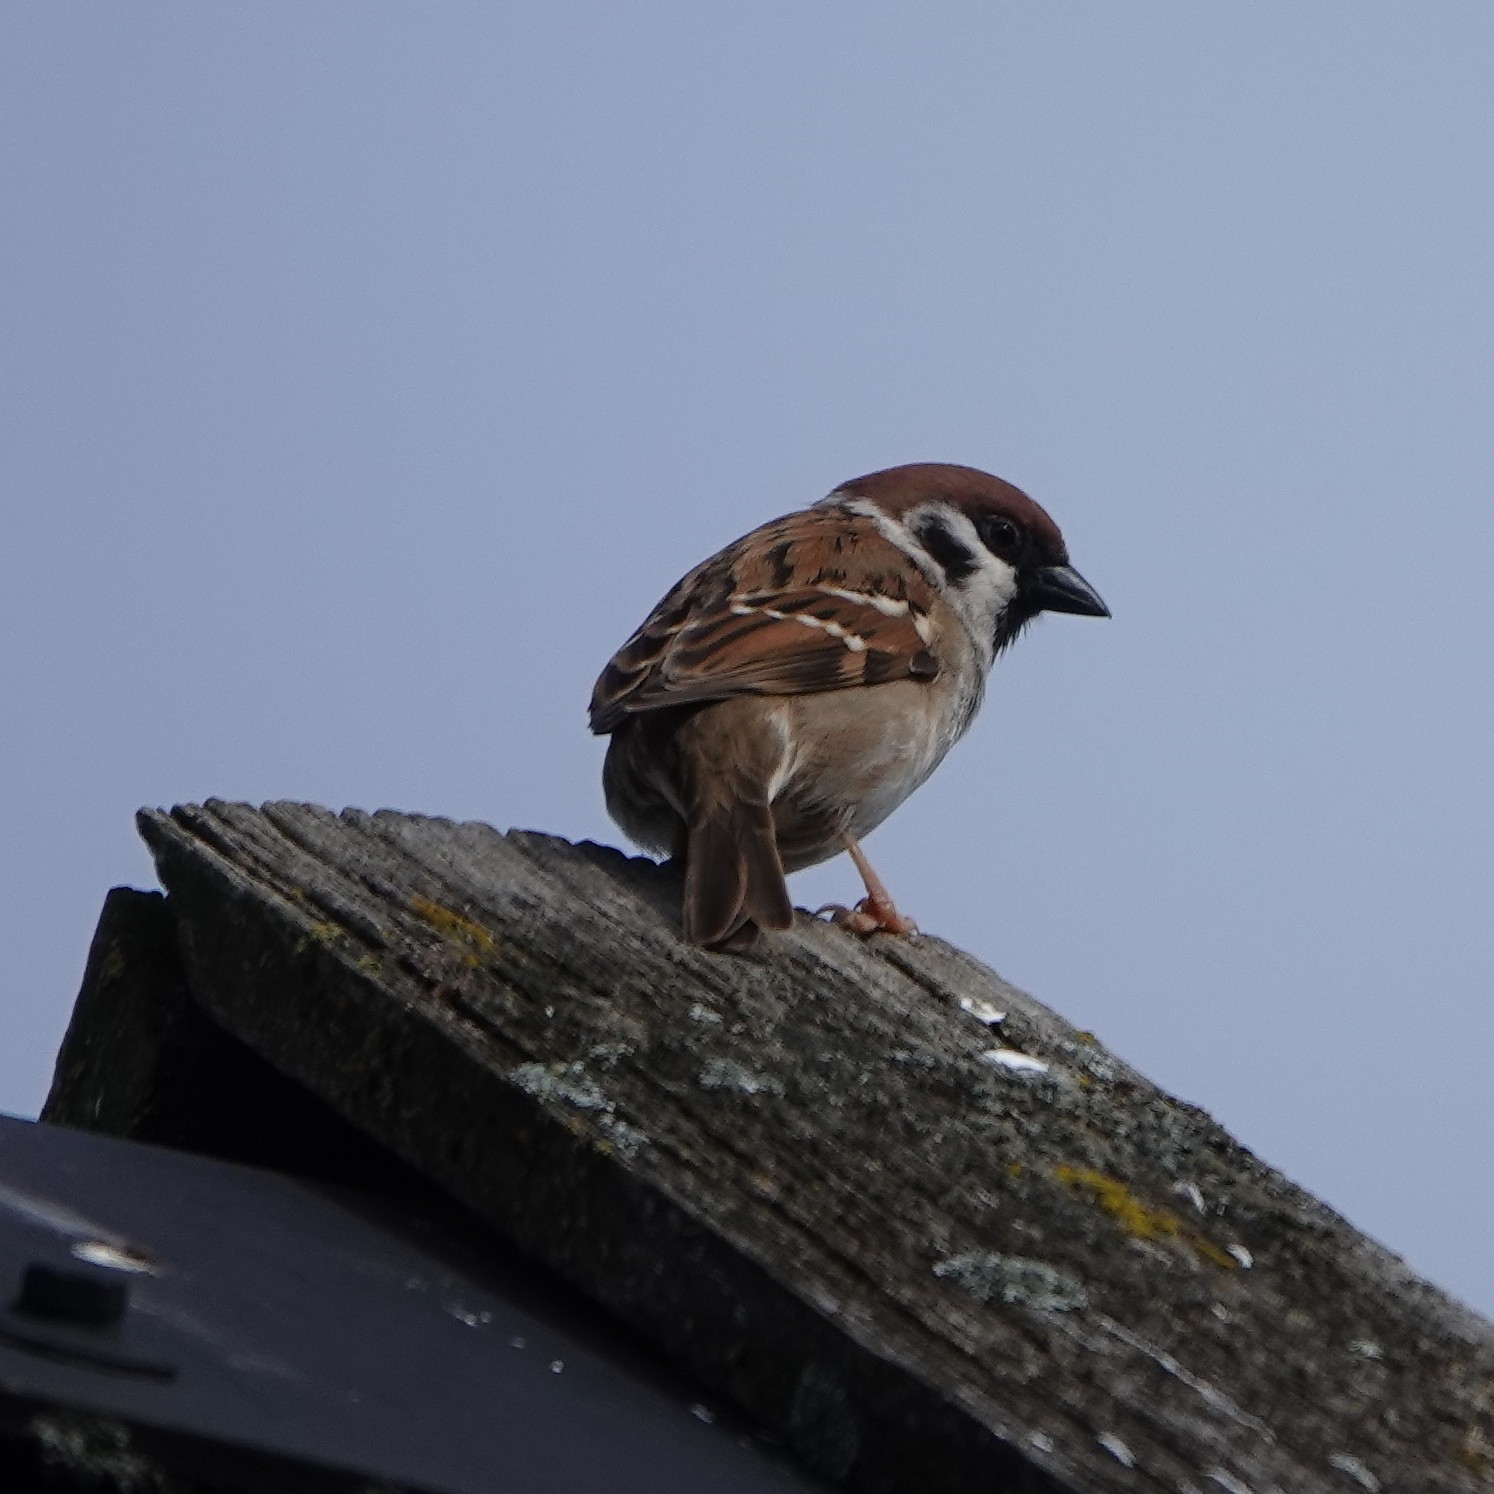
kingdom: Animalia
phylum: Chordata
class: Aves
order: Passeriformes
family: Passeridae
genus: Passer
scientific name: Passer montanus
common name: Eurasian tree sparrow
